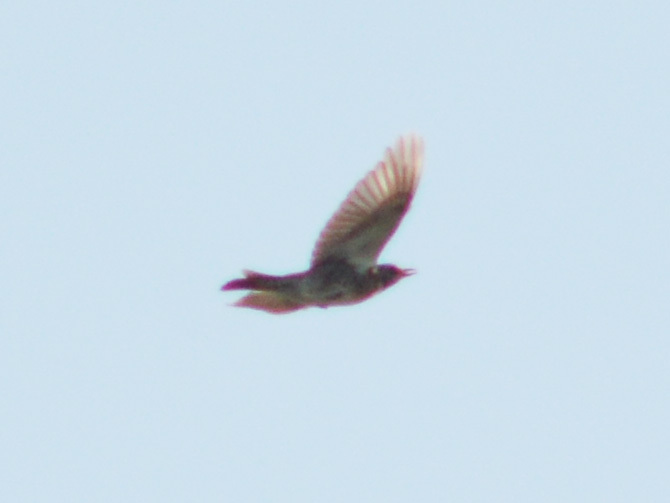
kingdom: Animalia
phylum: Chordata
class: Aves
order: Passeriformes
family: Turdidae
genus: Turdus
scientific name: Turdus pilaris
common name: Fieldfare
